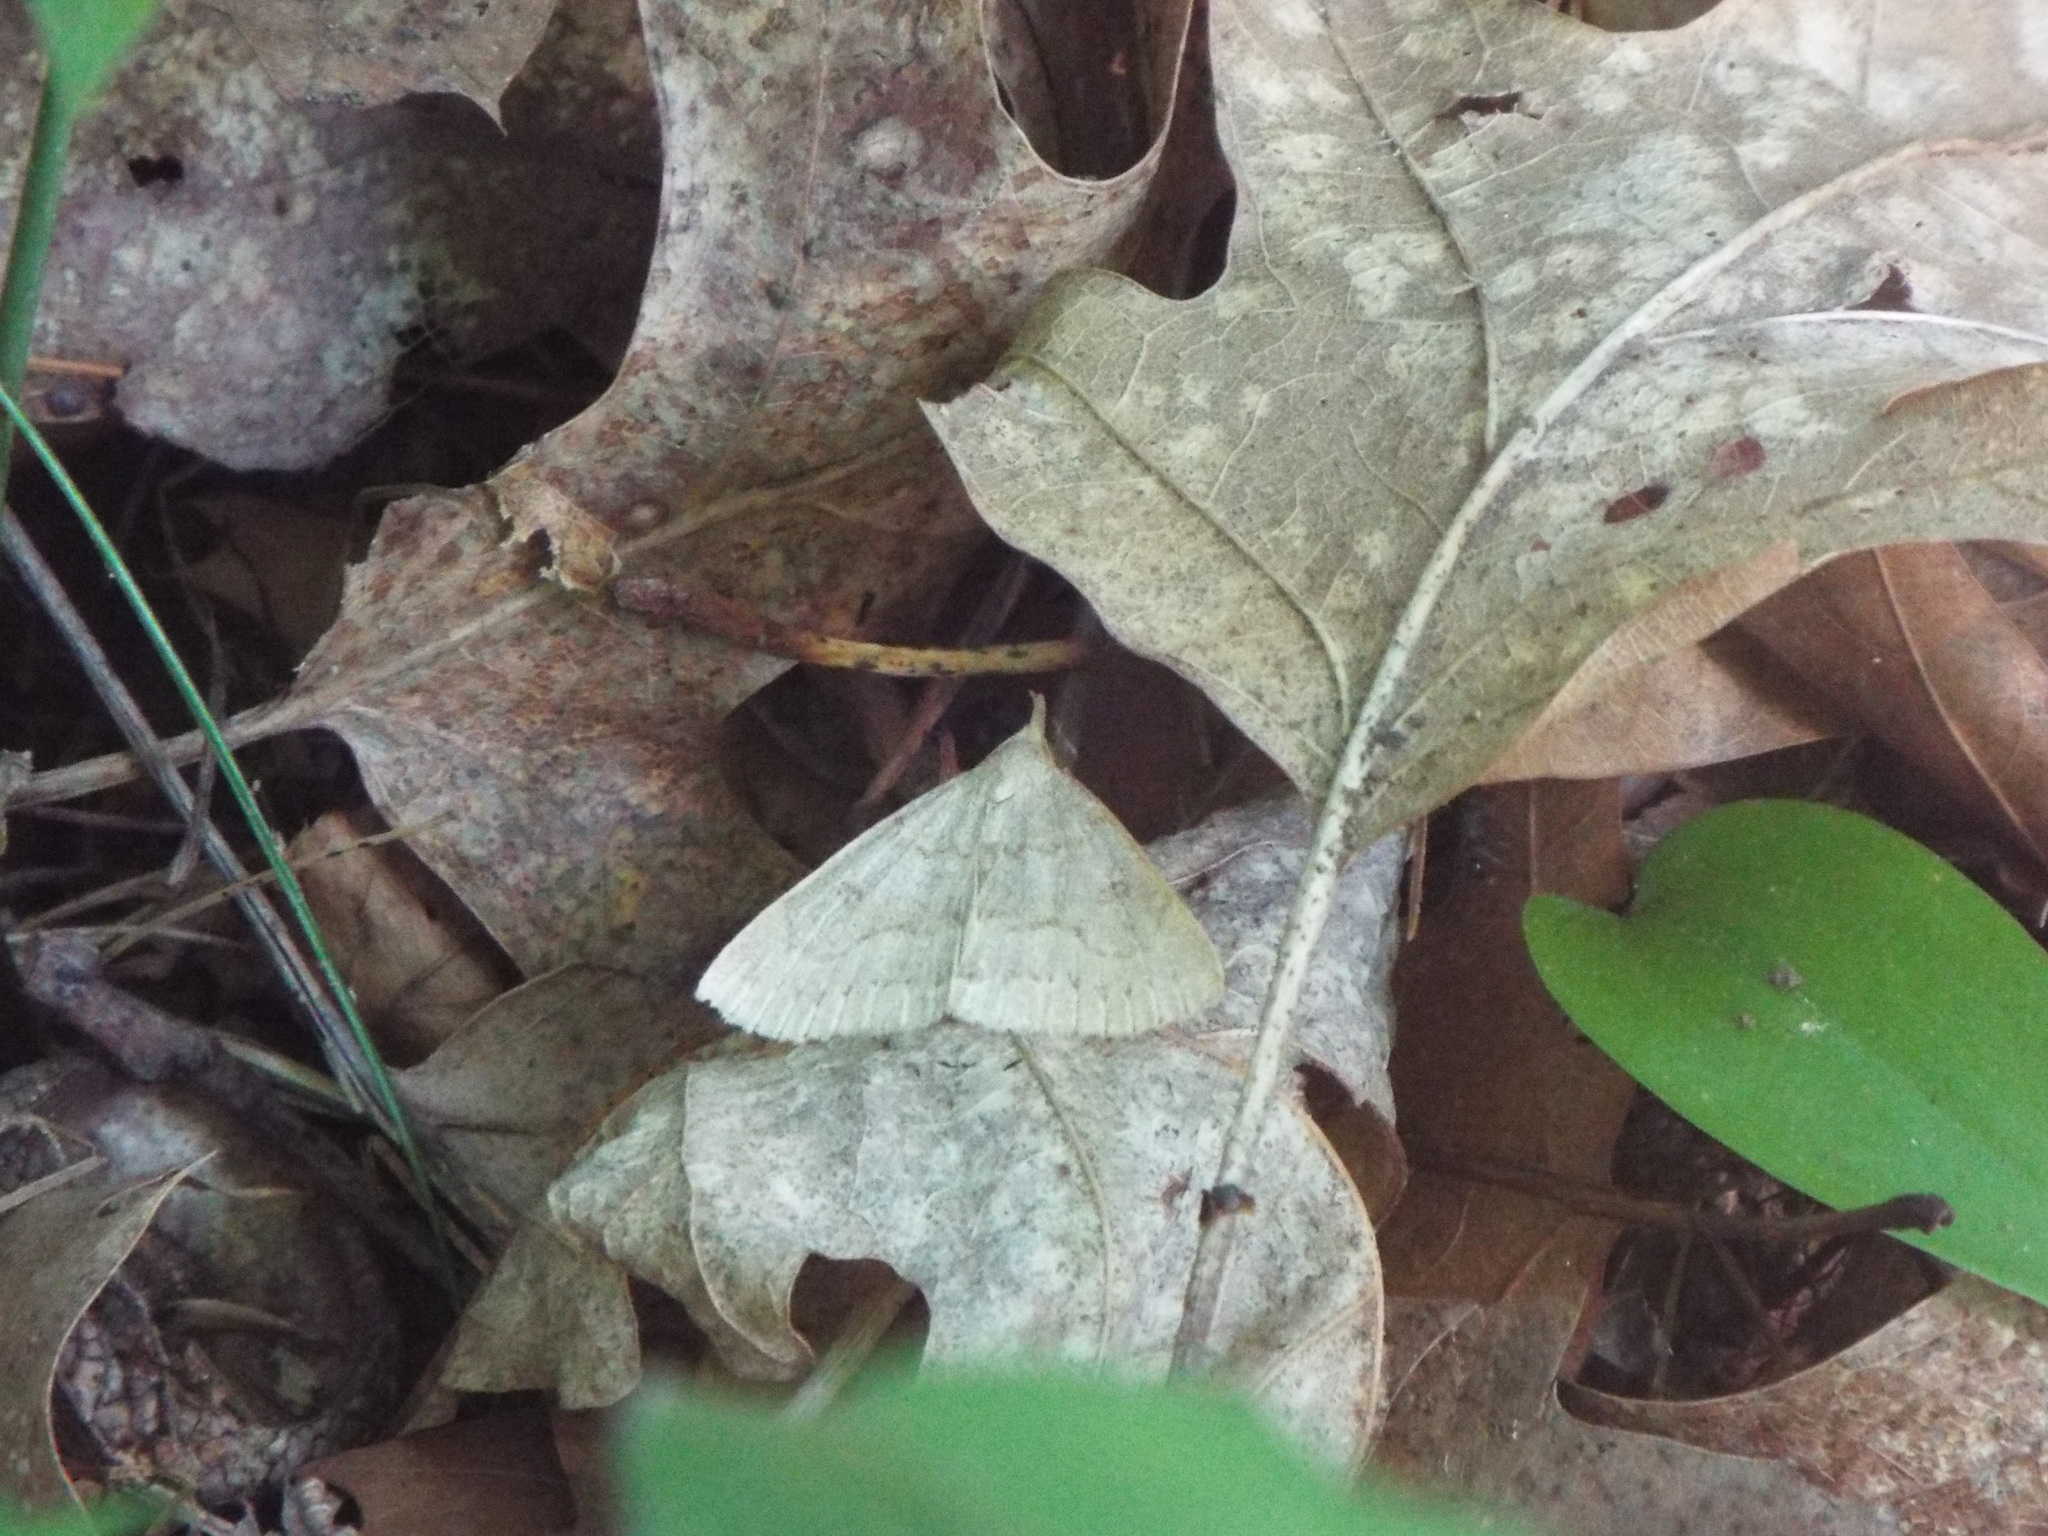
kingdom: Animalia
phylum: Arthropoda
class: Insecta
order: Lepidoptera
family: Erebidae
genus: Macrochilo
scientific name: Macrochilo morbidalis
